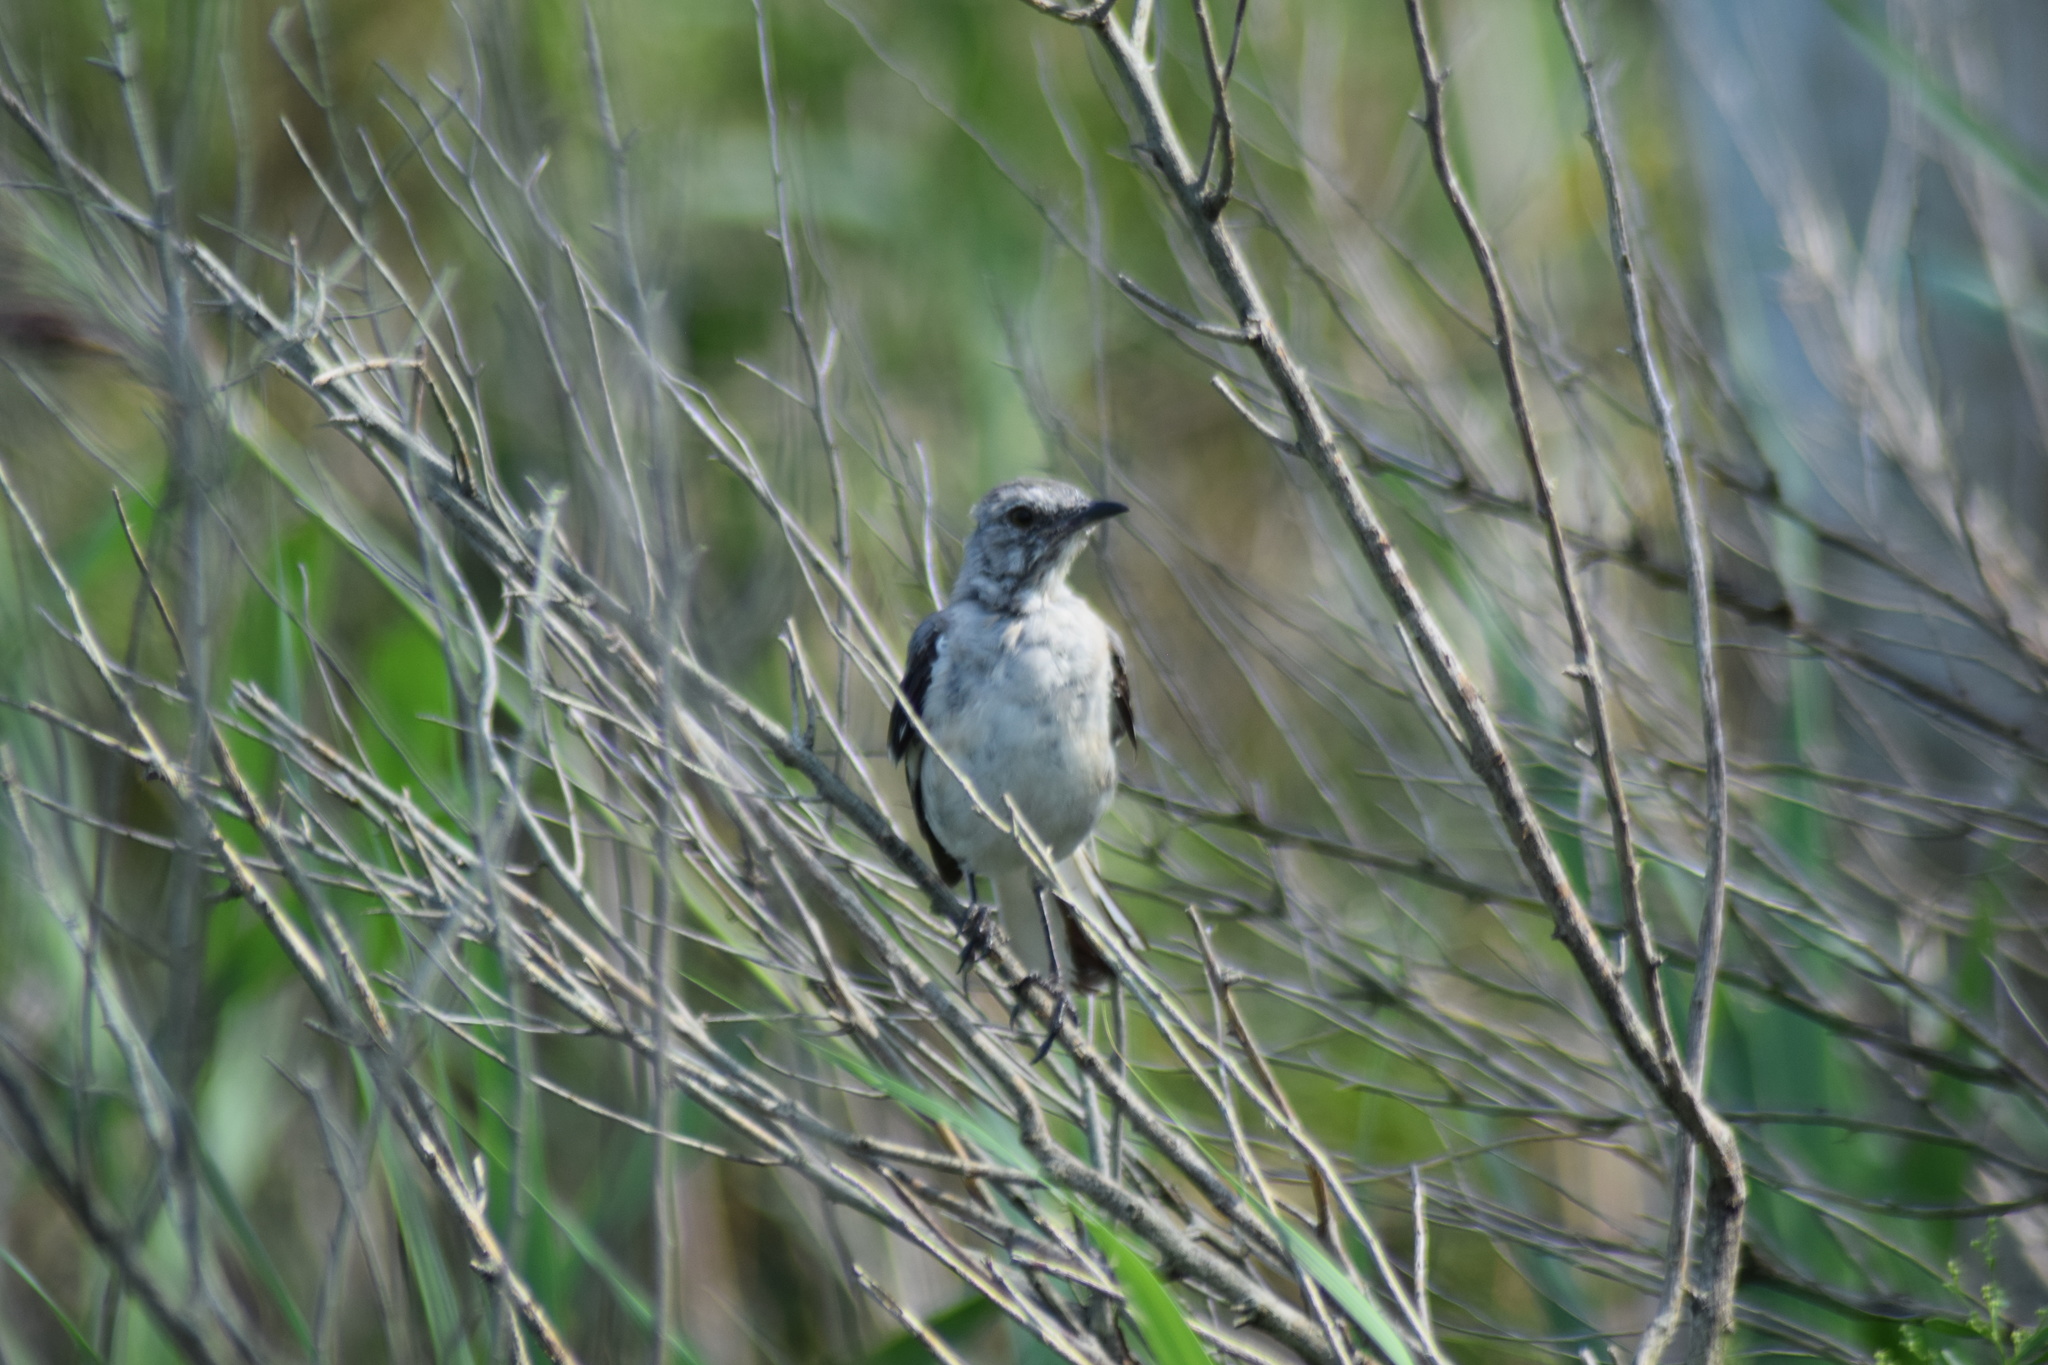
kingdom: Animalia
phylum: Chordata
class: Aves
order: Passeriformes
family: Mimidae
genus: Mimus
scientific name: Mimus polyglottos
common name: Northern mockingbird
